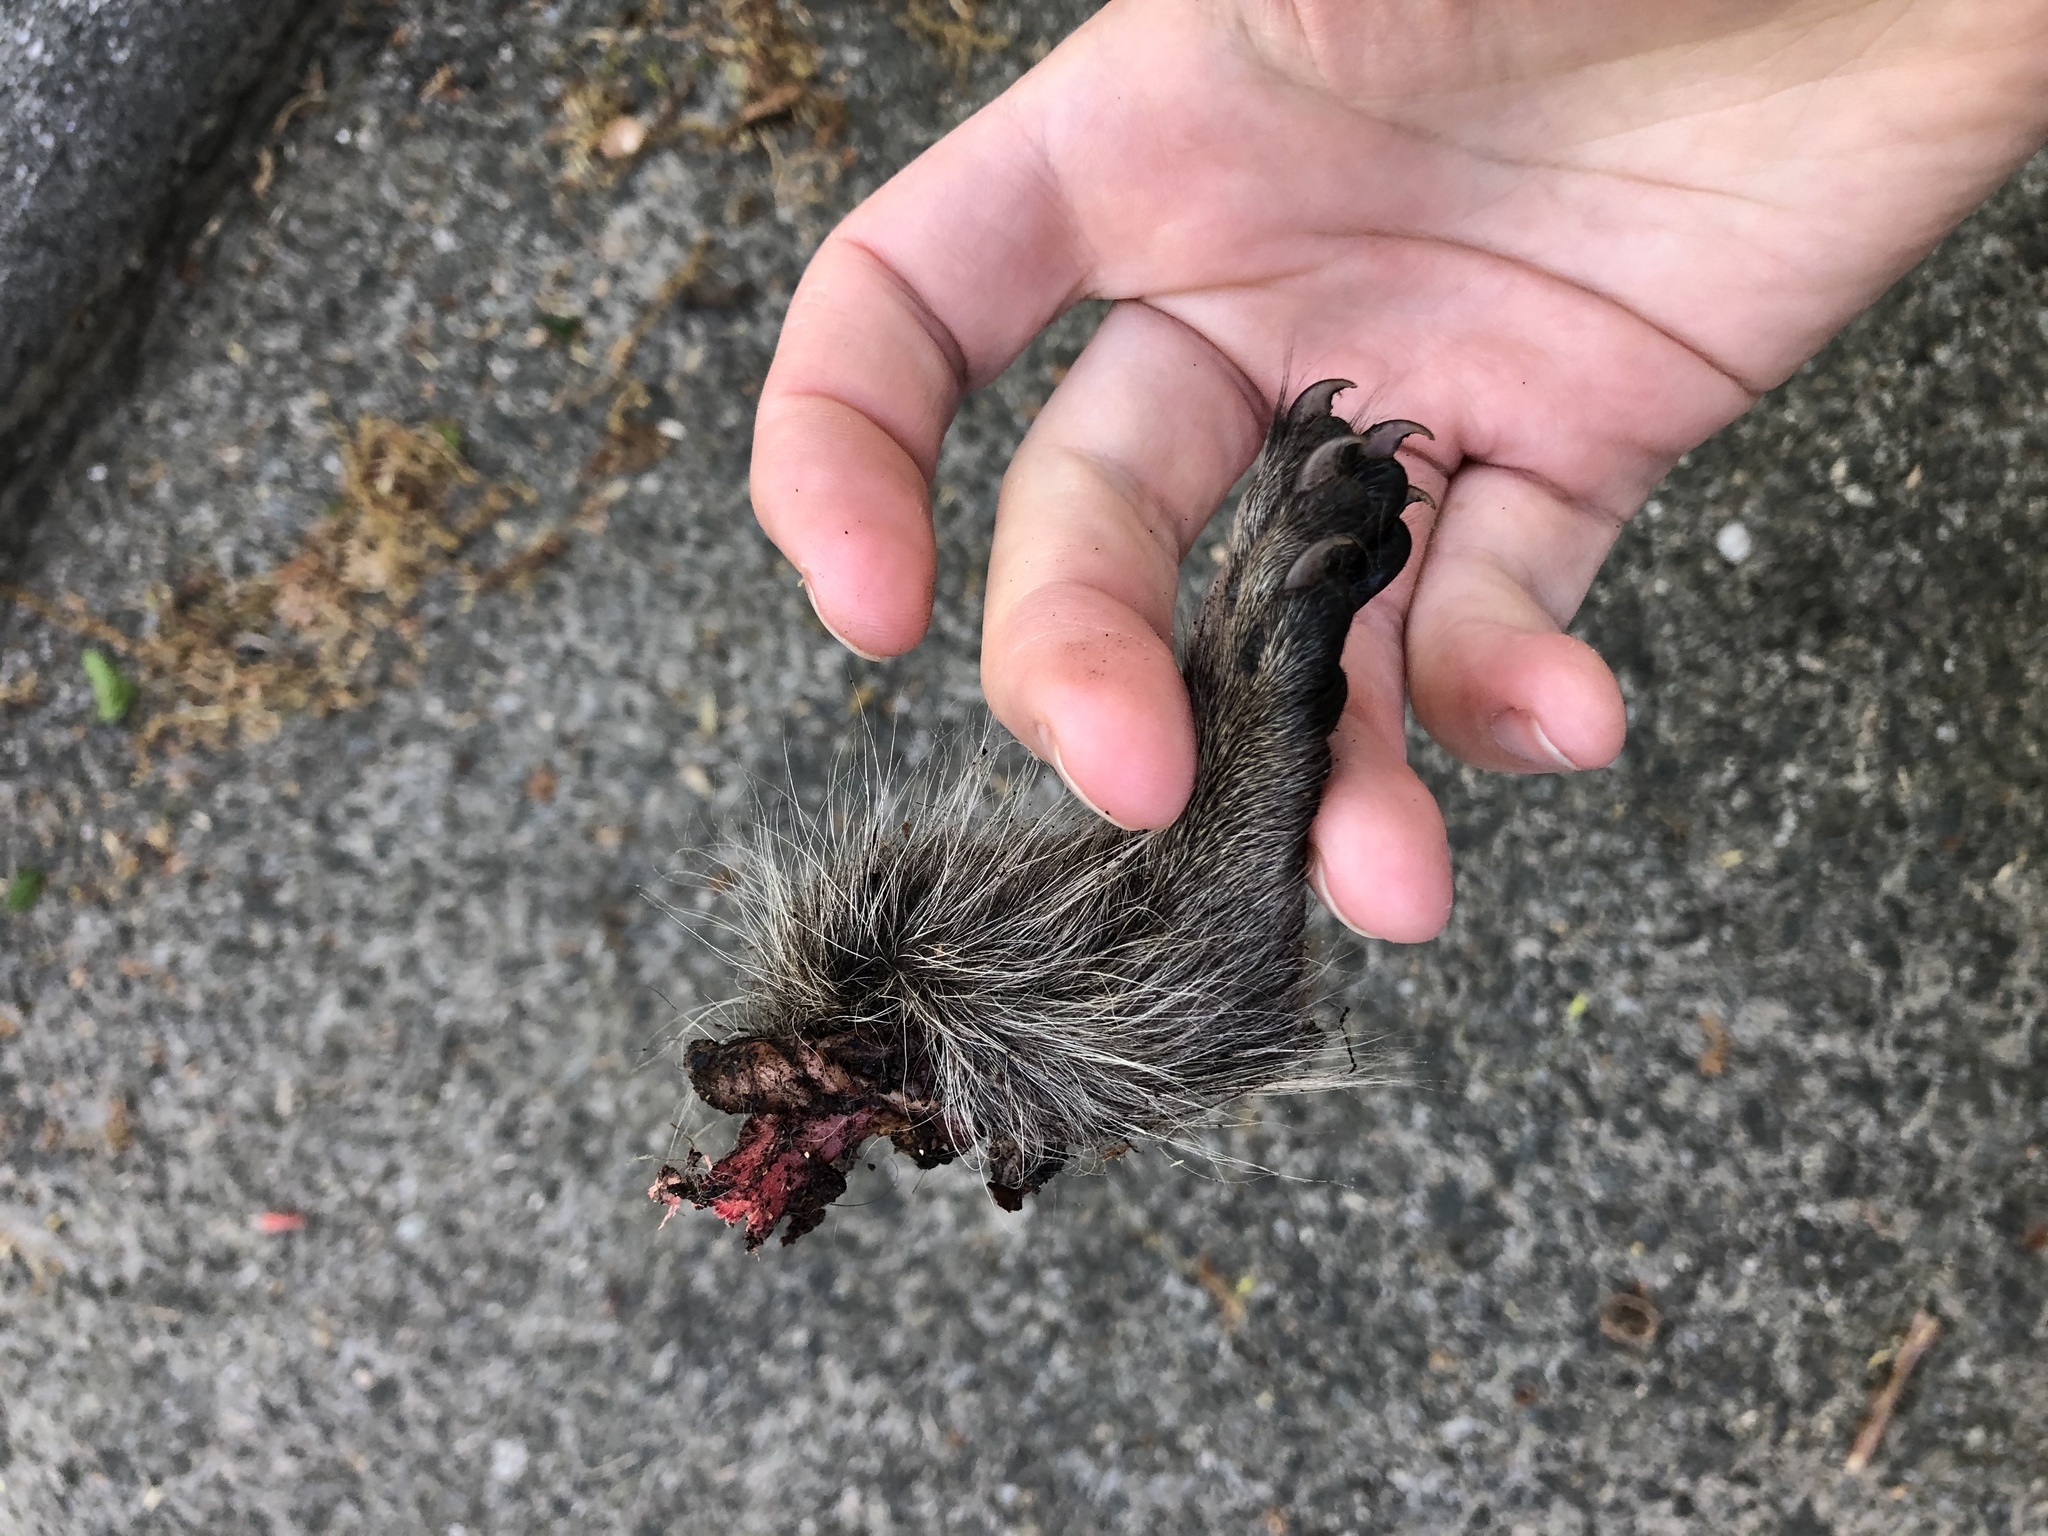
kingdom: Animalia
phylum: Chordata
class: Mammalia
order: Rodentia
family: Sciuridae
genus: Sciurus
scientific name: Sciurus carolinensis
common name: Eastern gray squirrel
